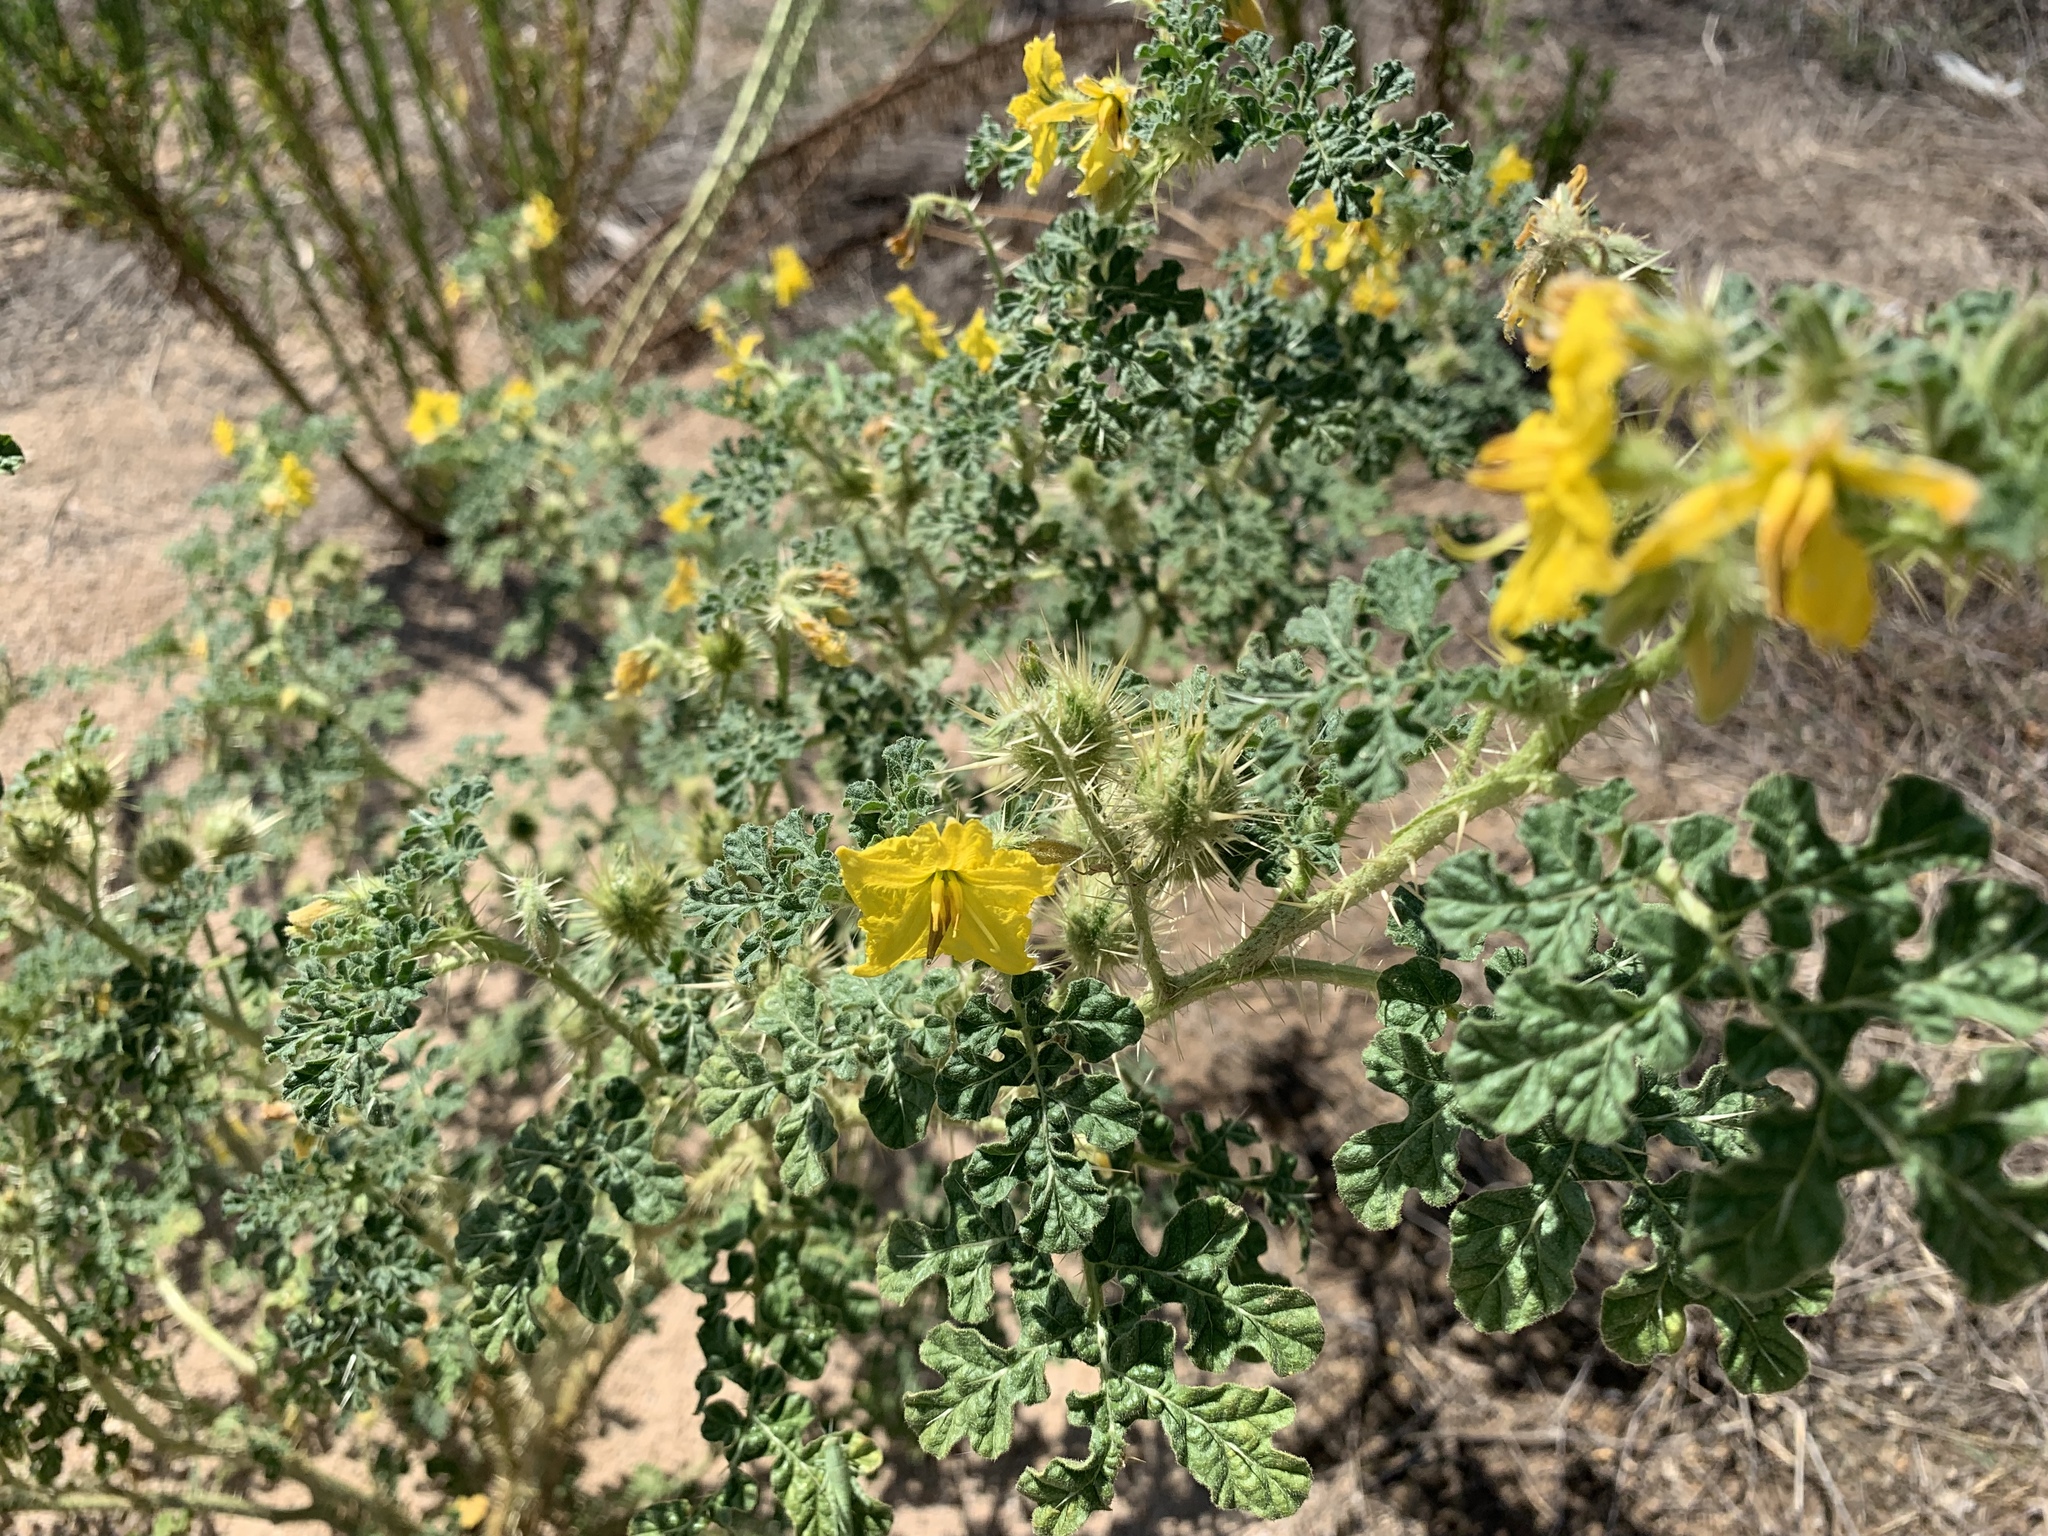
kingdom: Plantae
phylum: Tracheophyta
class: Magnoliopsida
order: Solanales
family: Solanaceae
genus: Solanum
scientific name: Solanum angustifolium
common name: Buffalobur nightshade
